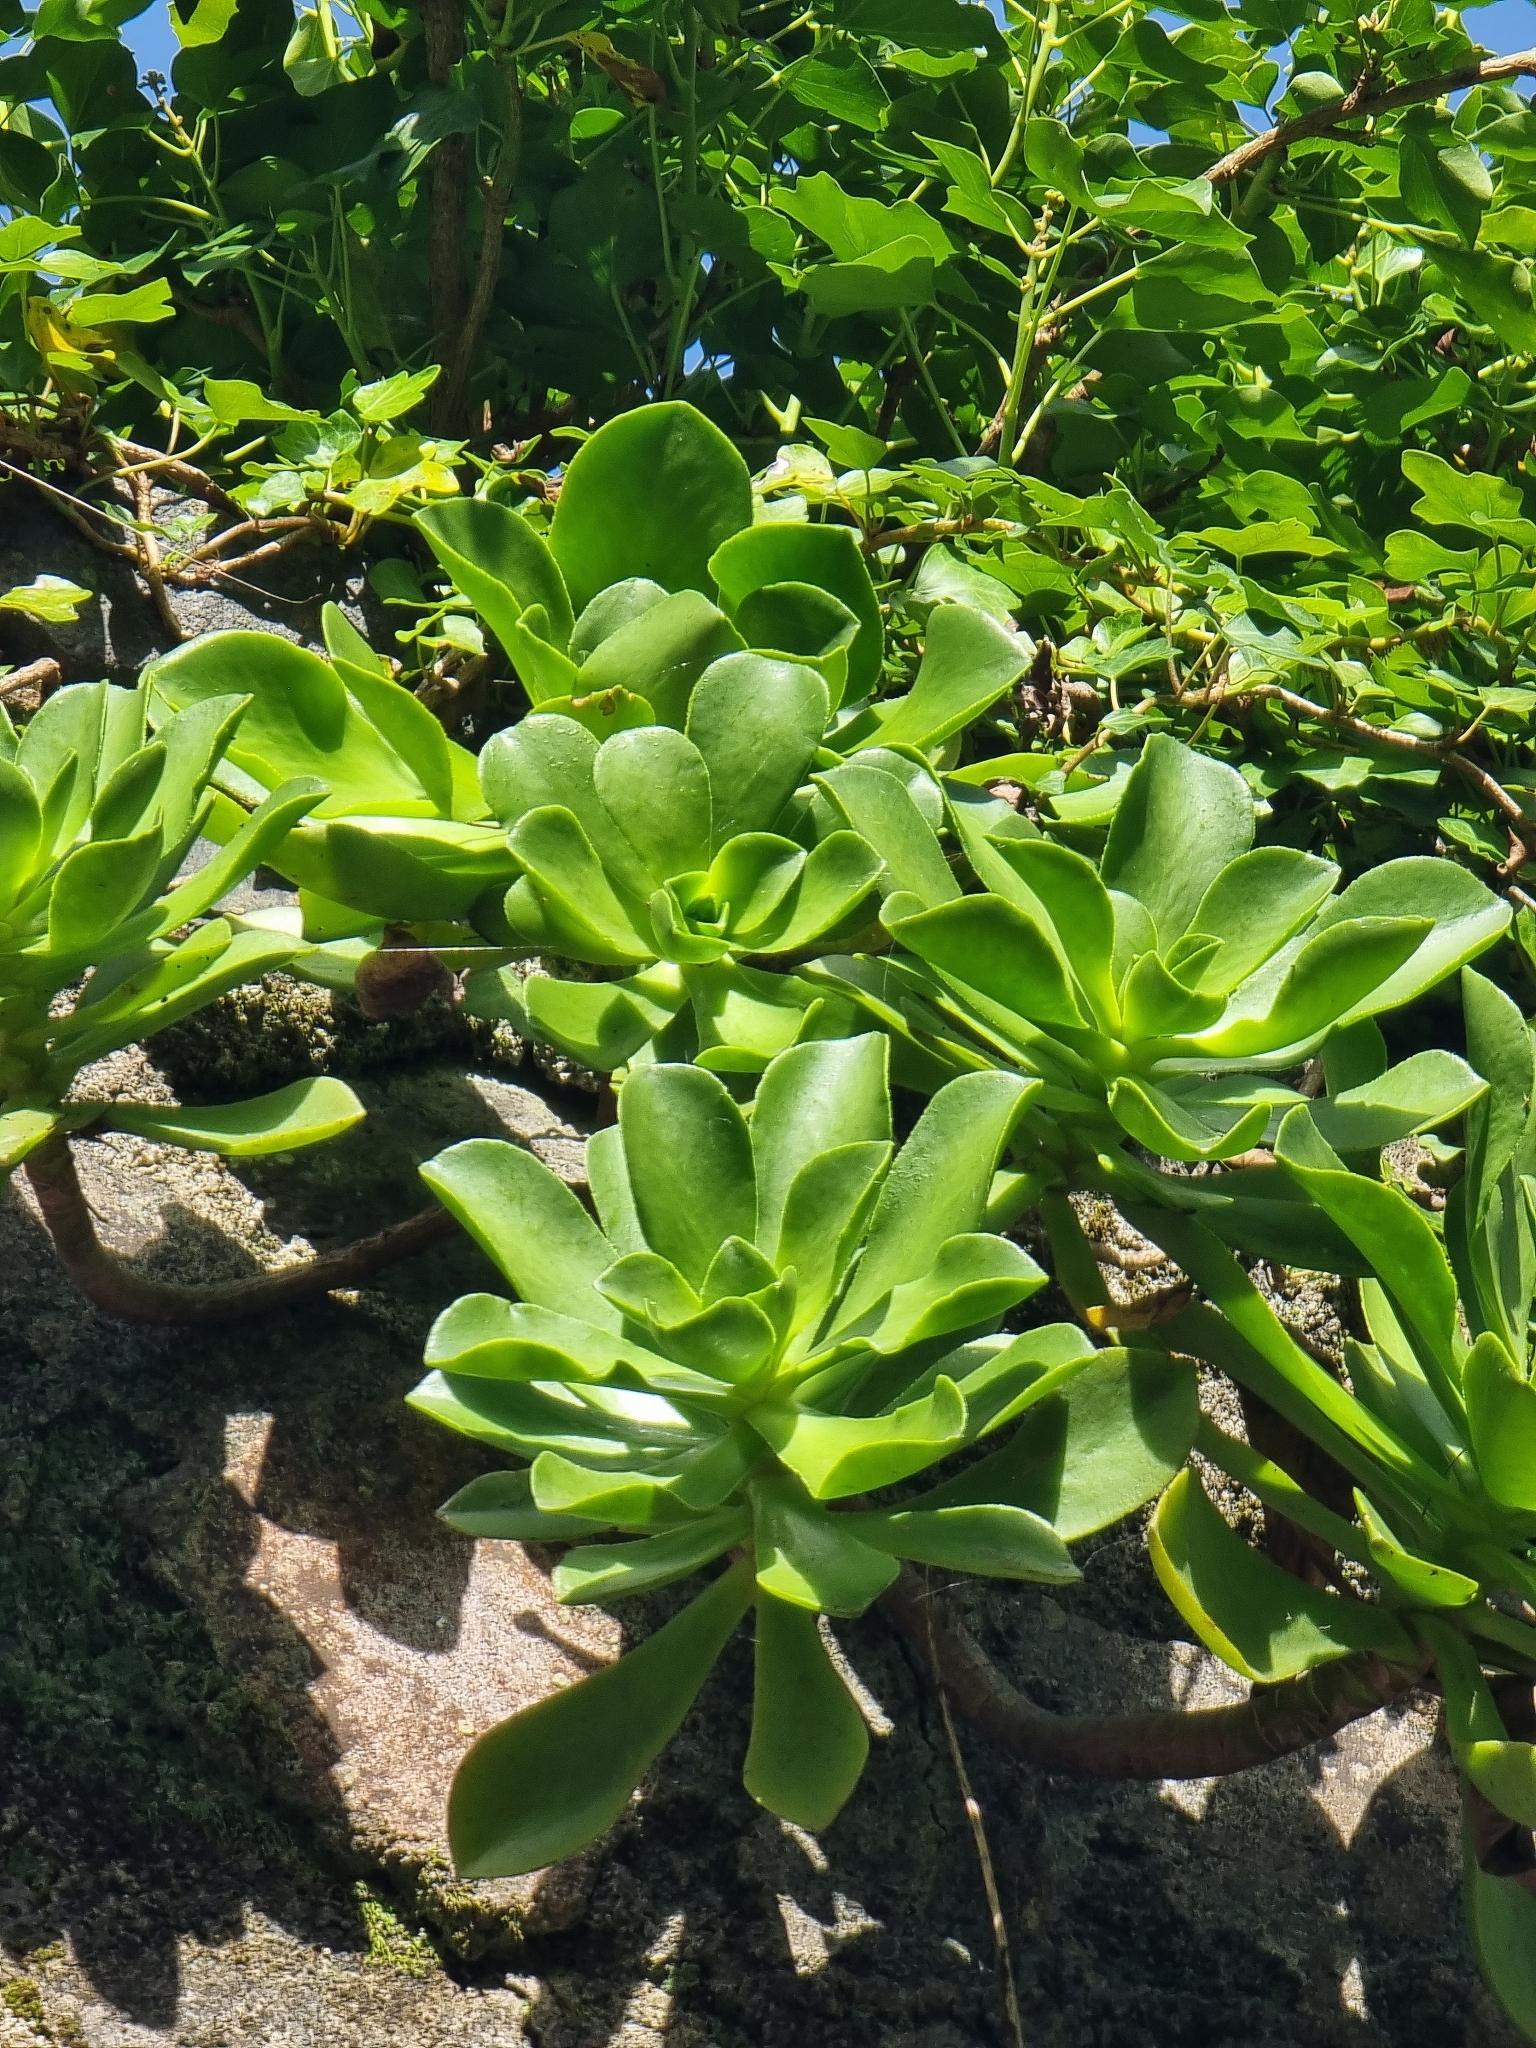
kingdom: Plantae
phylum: Tracheophyta
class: Magnoliopsida
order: Saxifragales
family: Crassulaceae
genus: Aeonium
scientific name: Aeonium glutinosum
